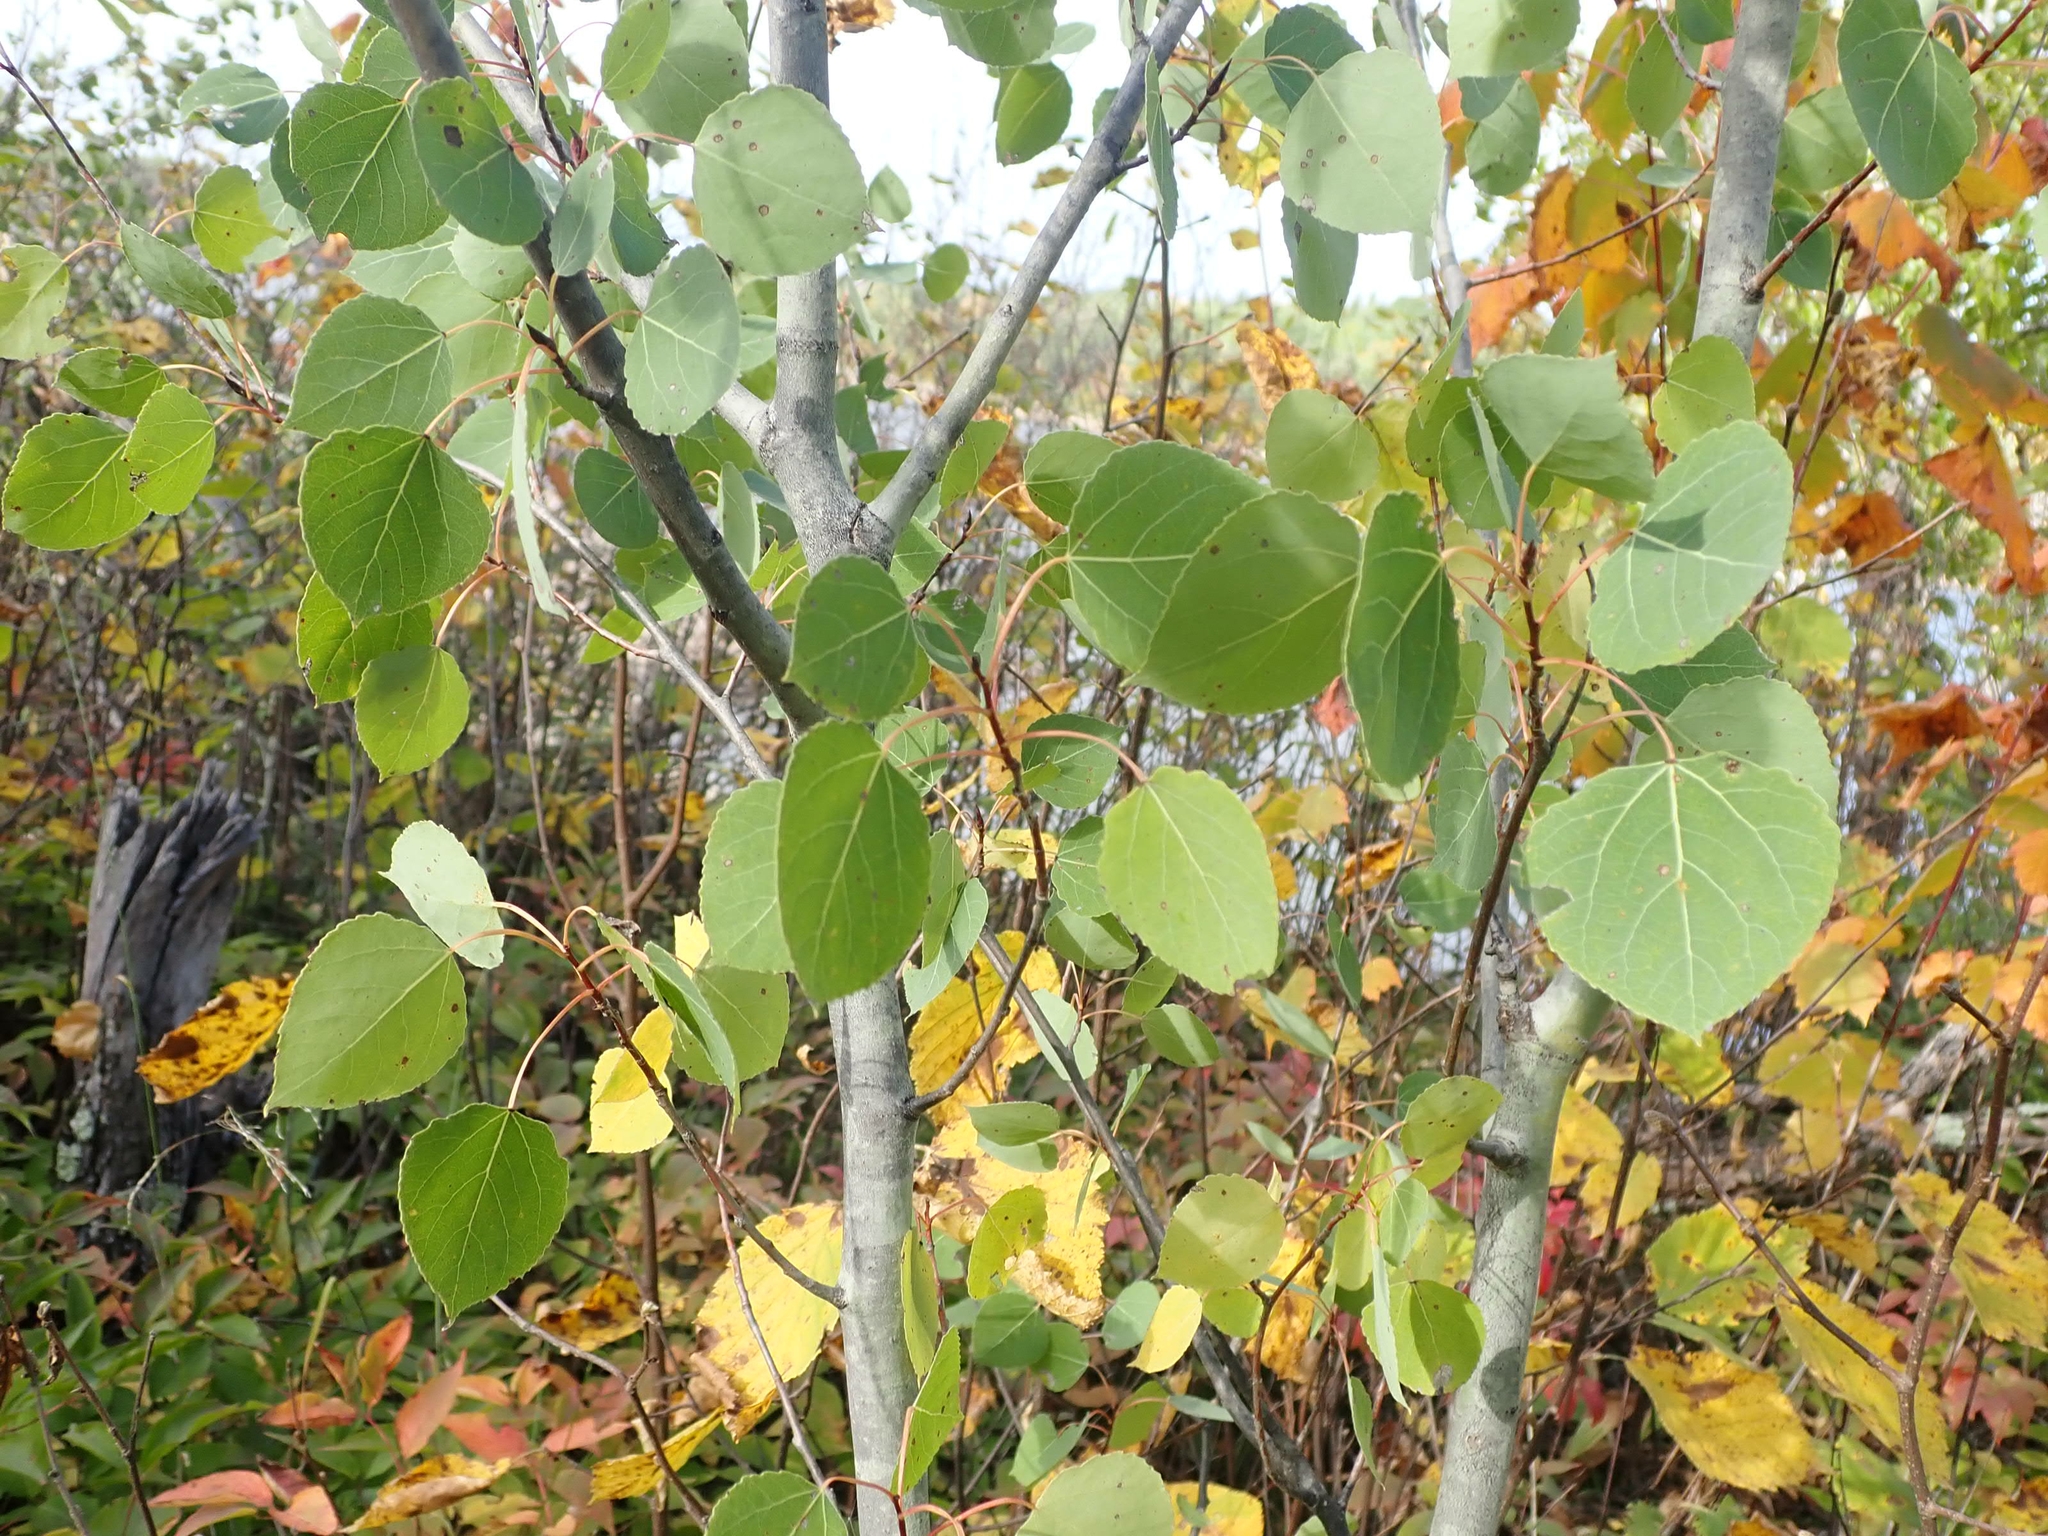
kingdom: Plantae
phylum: Tracheophyta
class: Magnoliopsida
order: Malpighiales
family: Salicaceae
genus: Populus
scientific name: Populus tremuloides
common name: Quaking aspen
